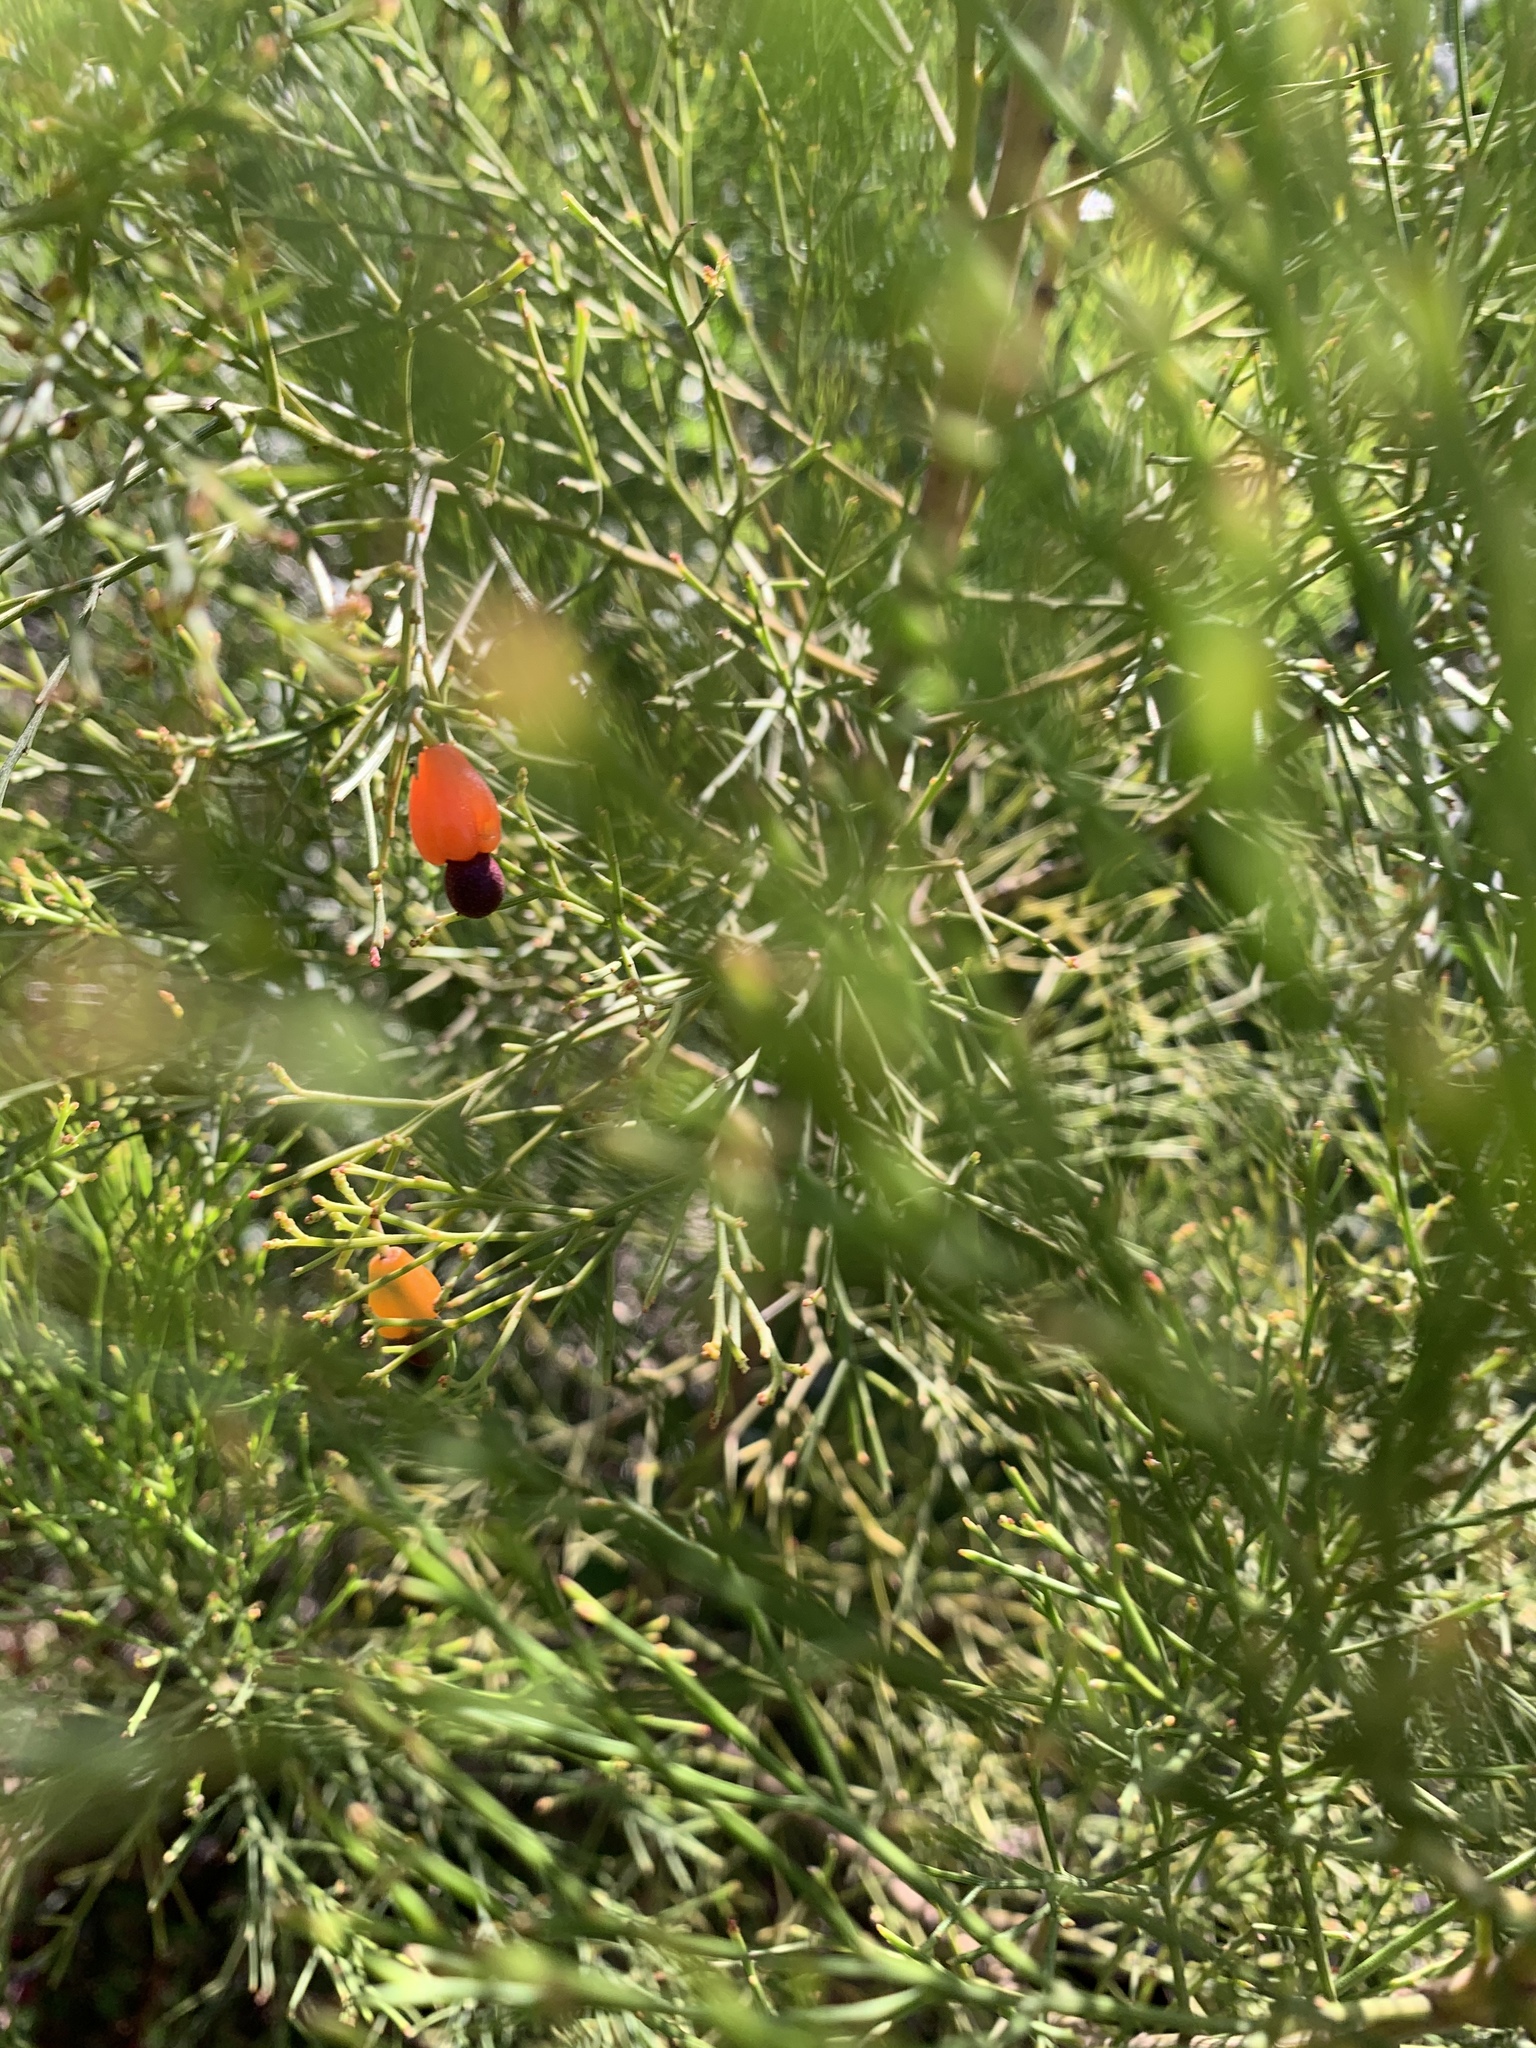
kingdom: Plantae
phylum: Tracheophyta
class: Magnoliopsida
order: Santalales
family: Santalaceae
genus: Exocarpos
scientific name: Exocarpos cupressiformis
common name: Cherry ballart
